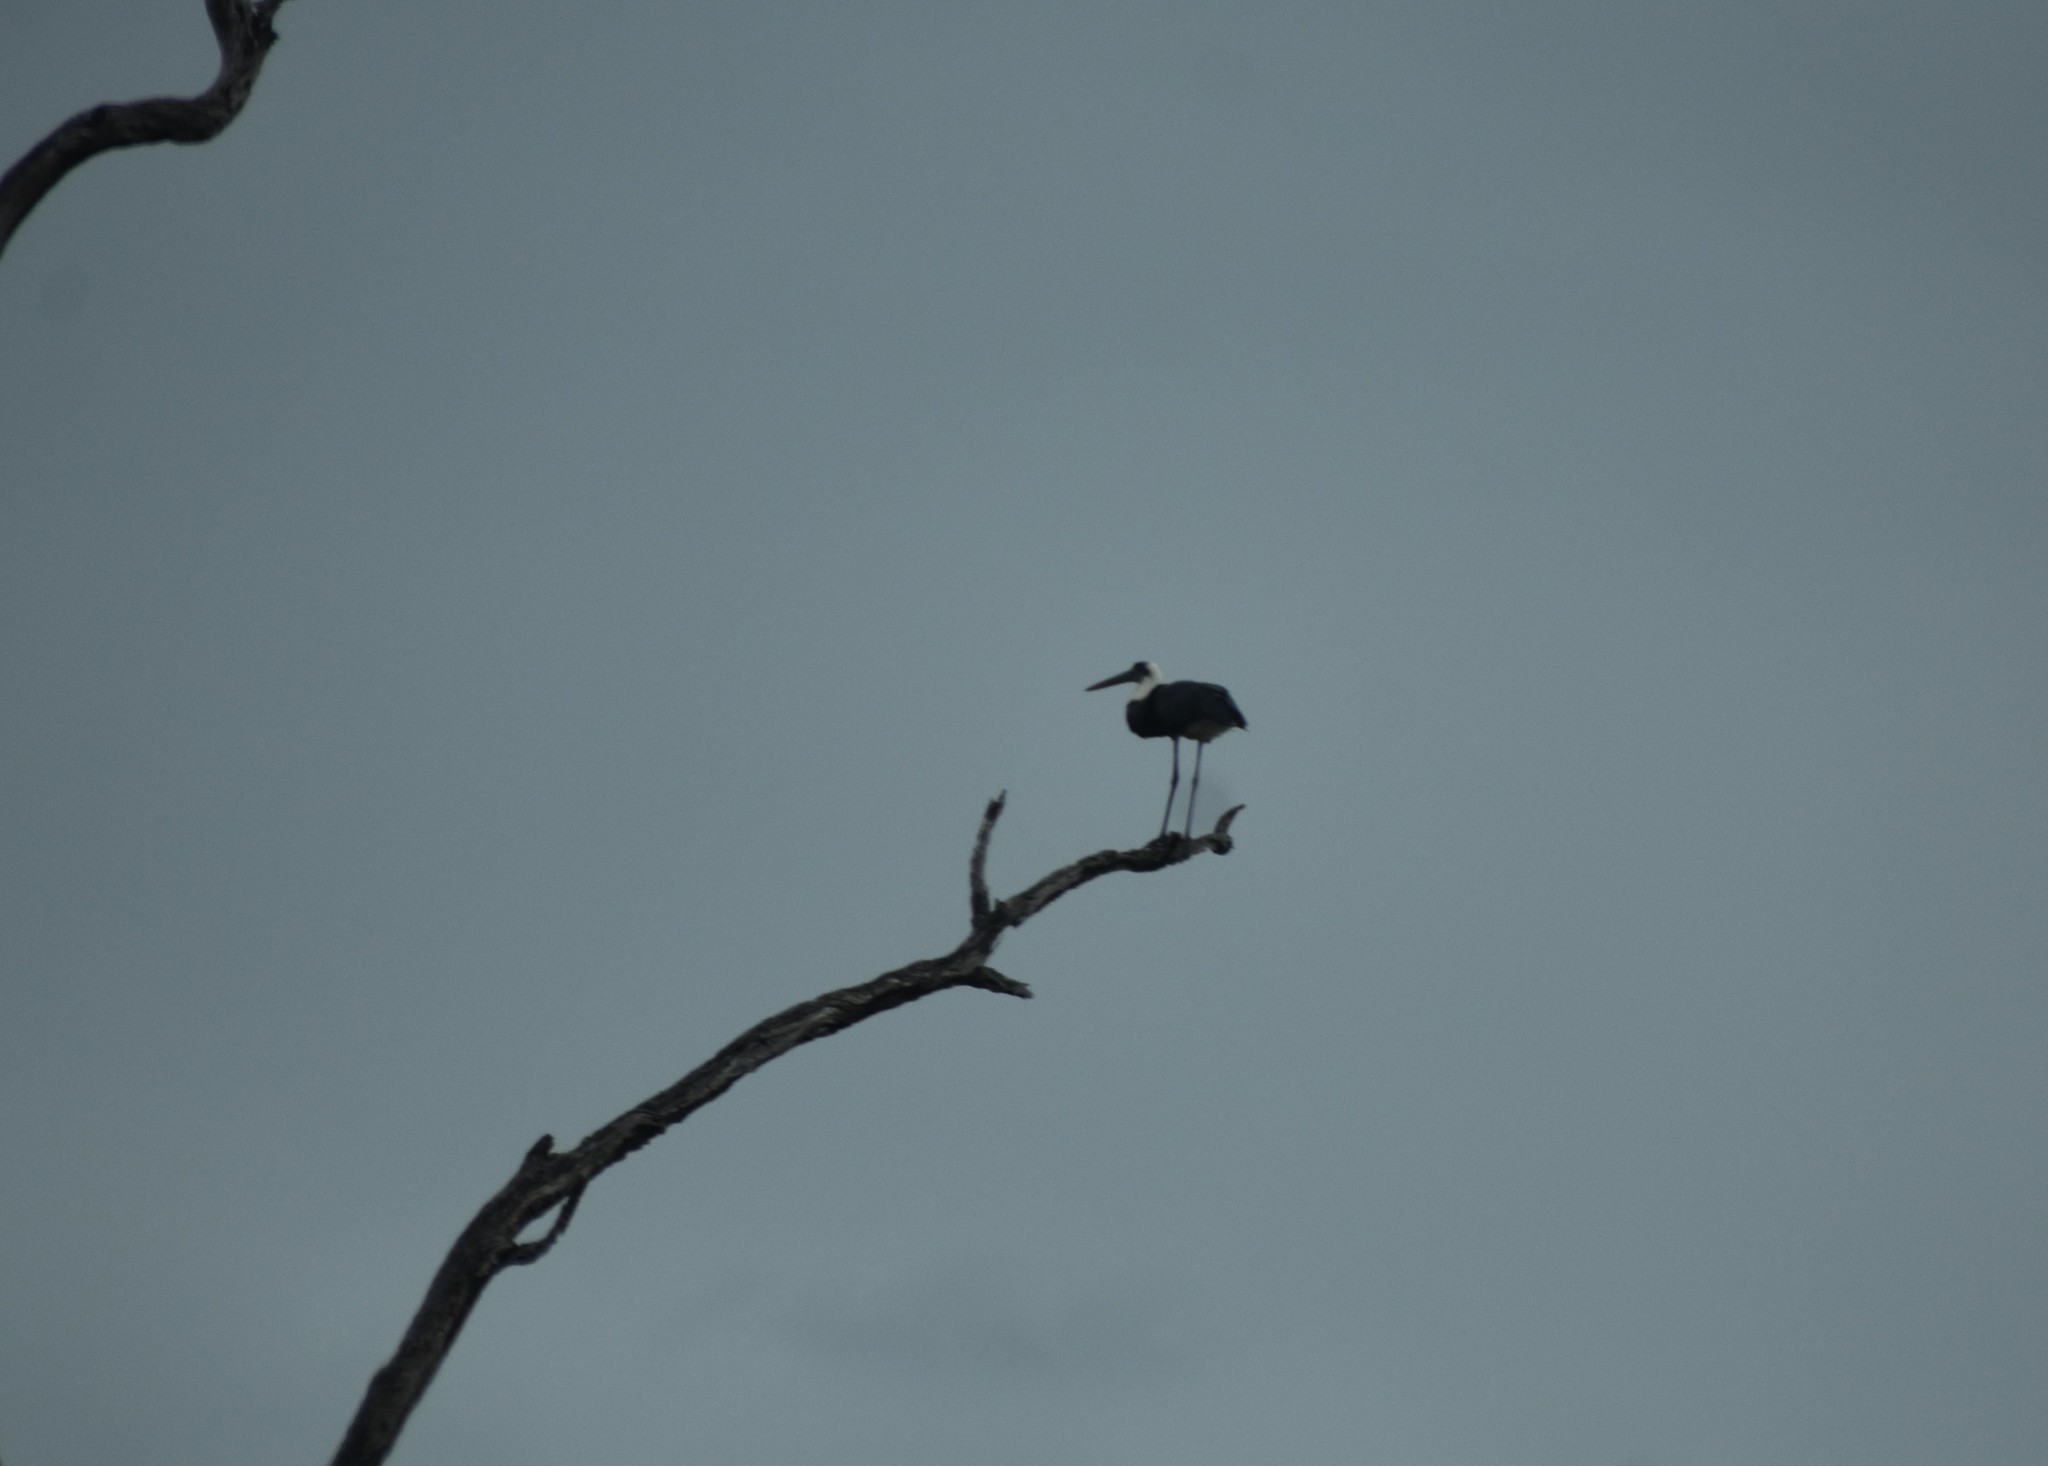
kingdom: Animalia
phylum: Chordata
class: Aves
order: Ciconiiformes
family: Ciconiidae
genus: Ciconia
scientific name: Ciconia microscelis
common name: African woollyneck
